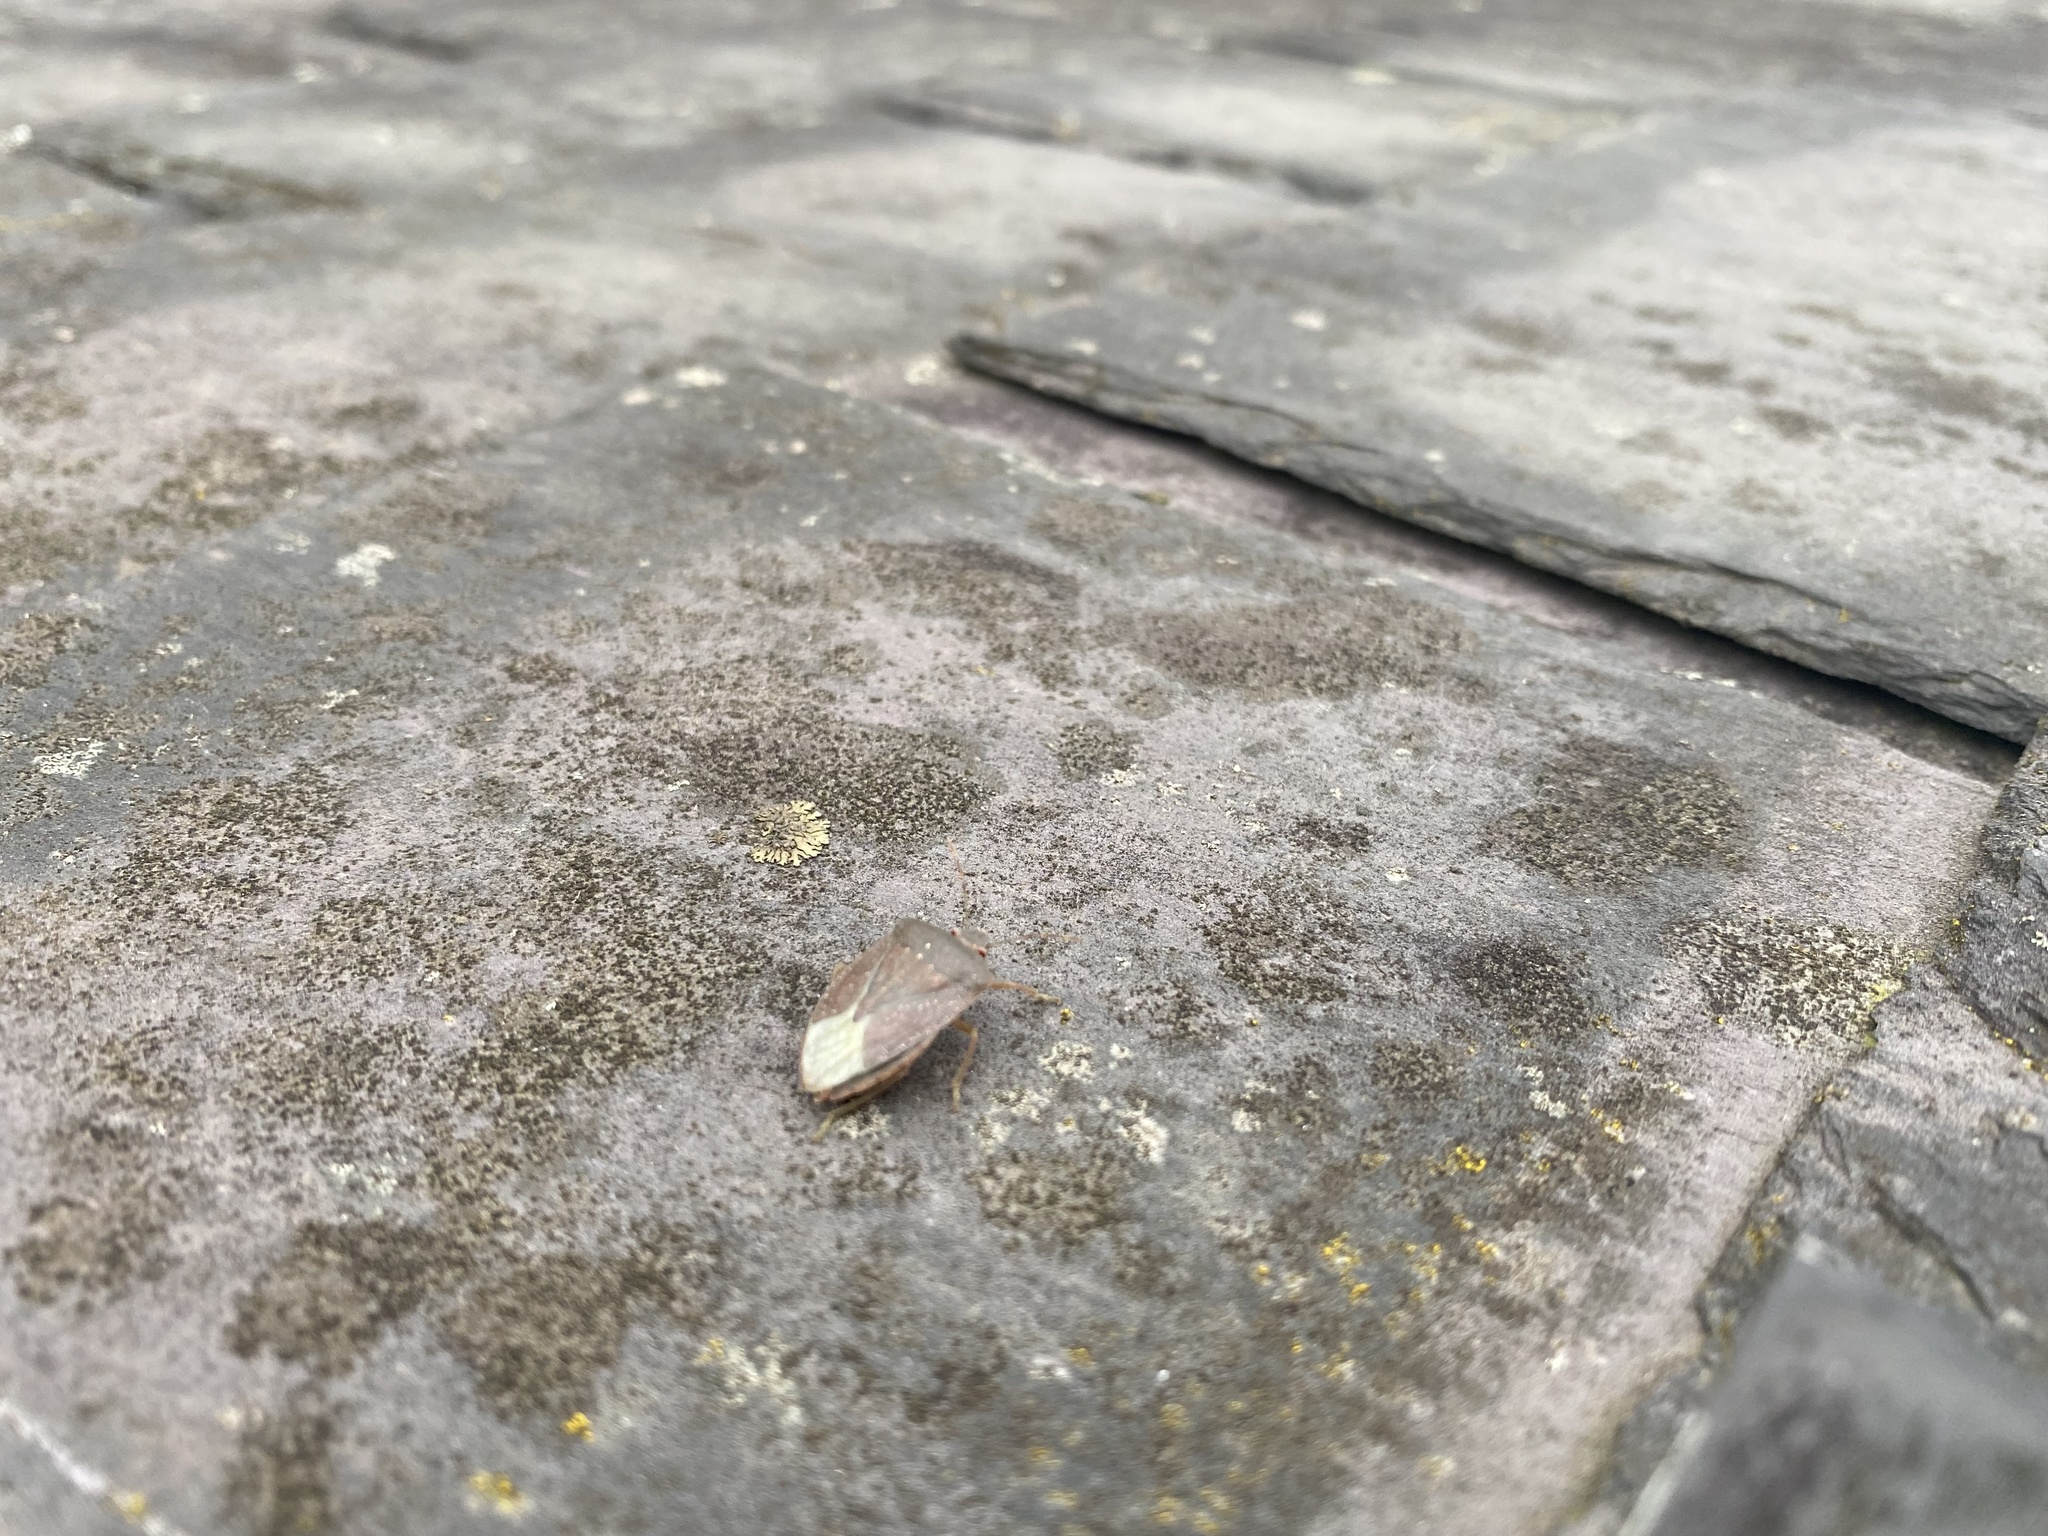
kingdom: Animalia
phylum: Arthropoda
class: Insecta
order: Hemiptera
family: Pentatomidae
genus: Nezara
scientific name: Nezara viridula
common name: Southern green stink bug
